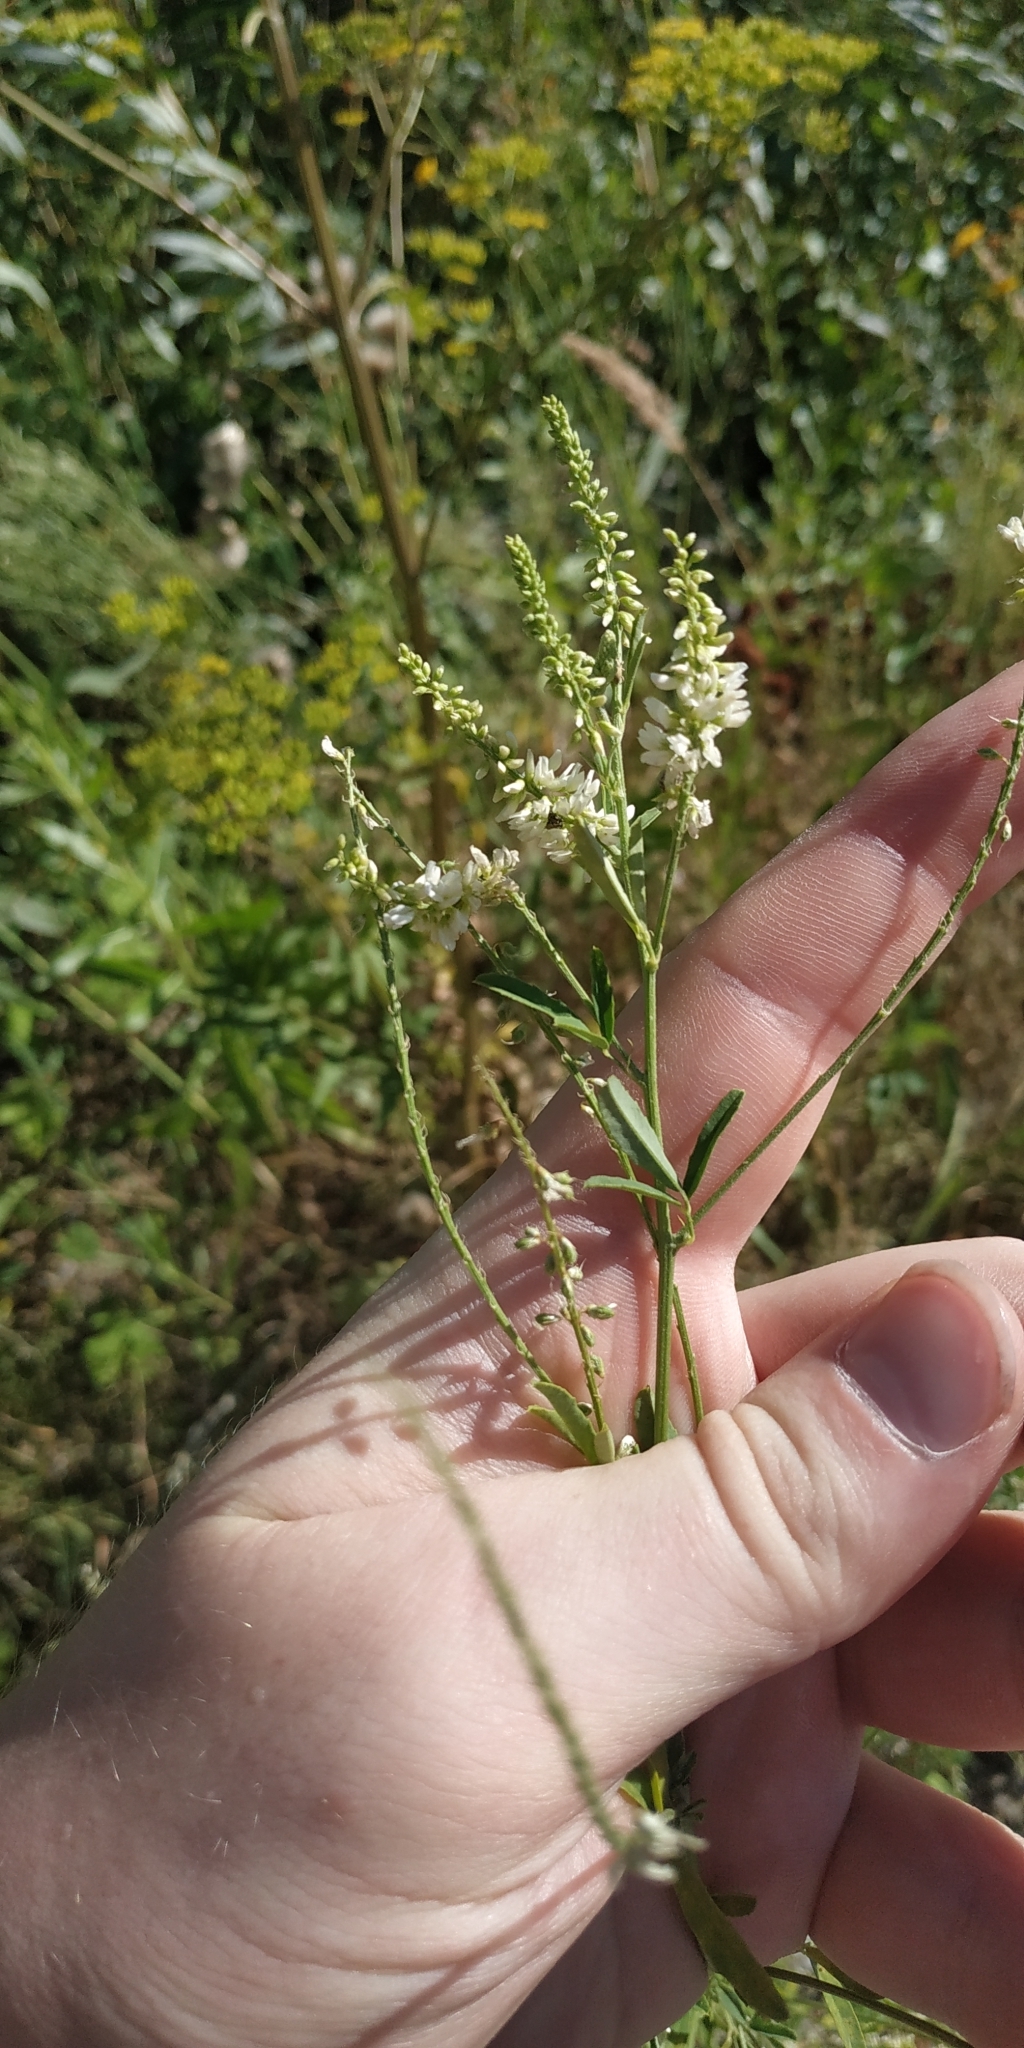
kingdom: Plantae
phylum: Tracheophyta
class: Magnoliopsida
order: Fabales
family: Fabaceae
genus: Melilotus
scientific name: Melilotus albus
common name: White melilot
